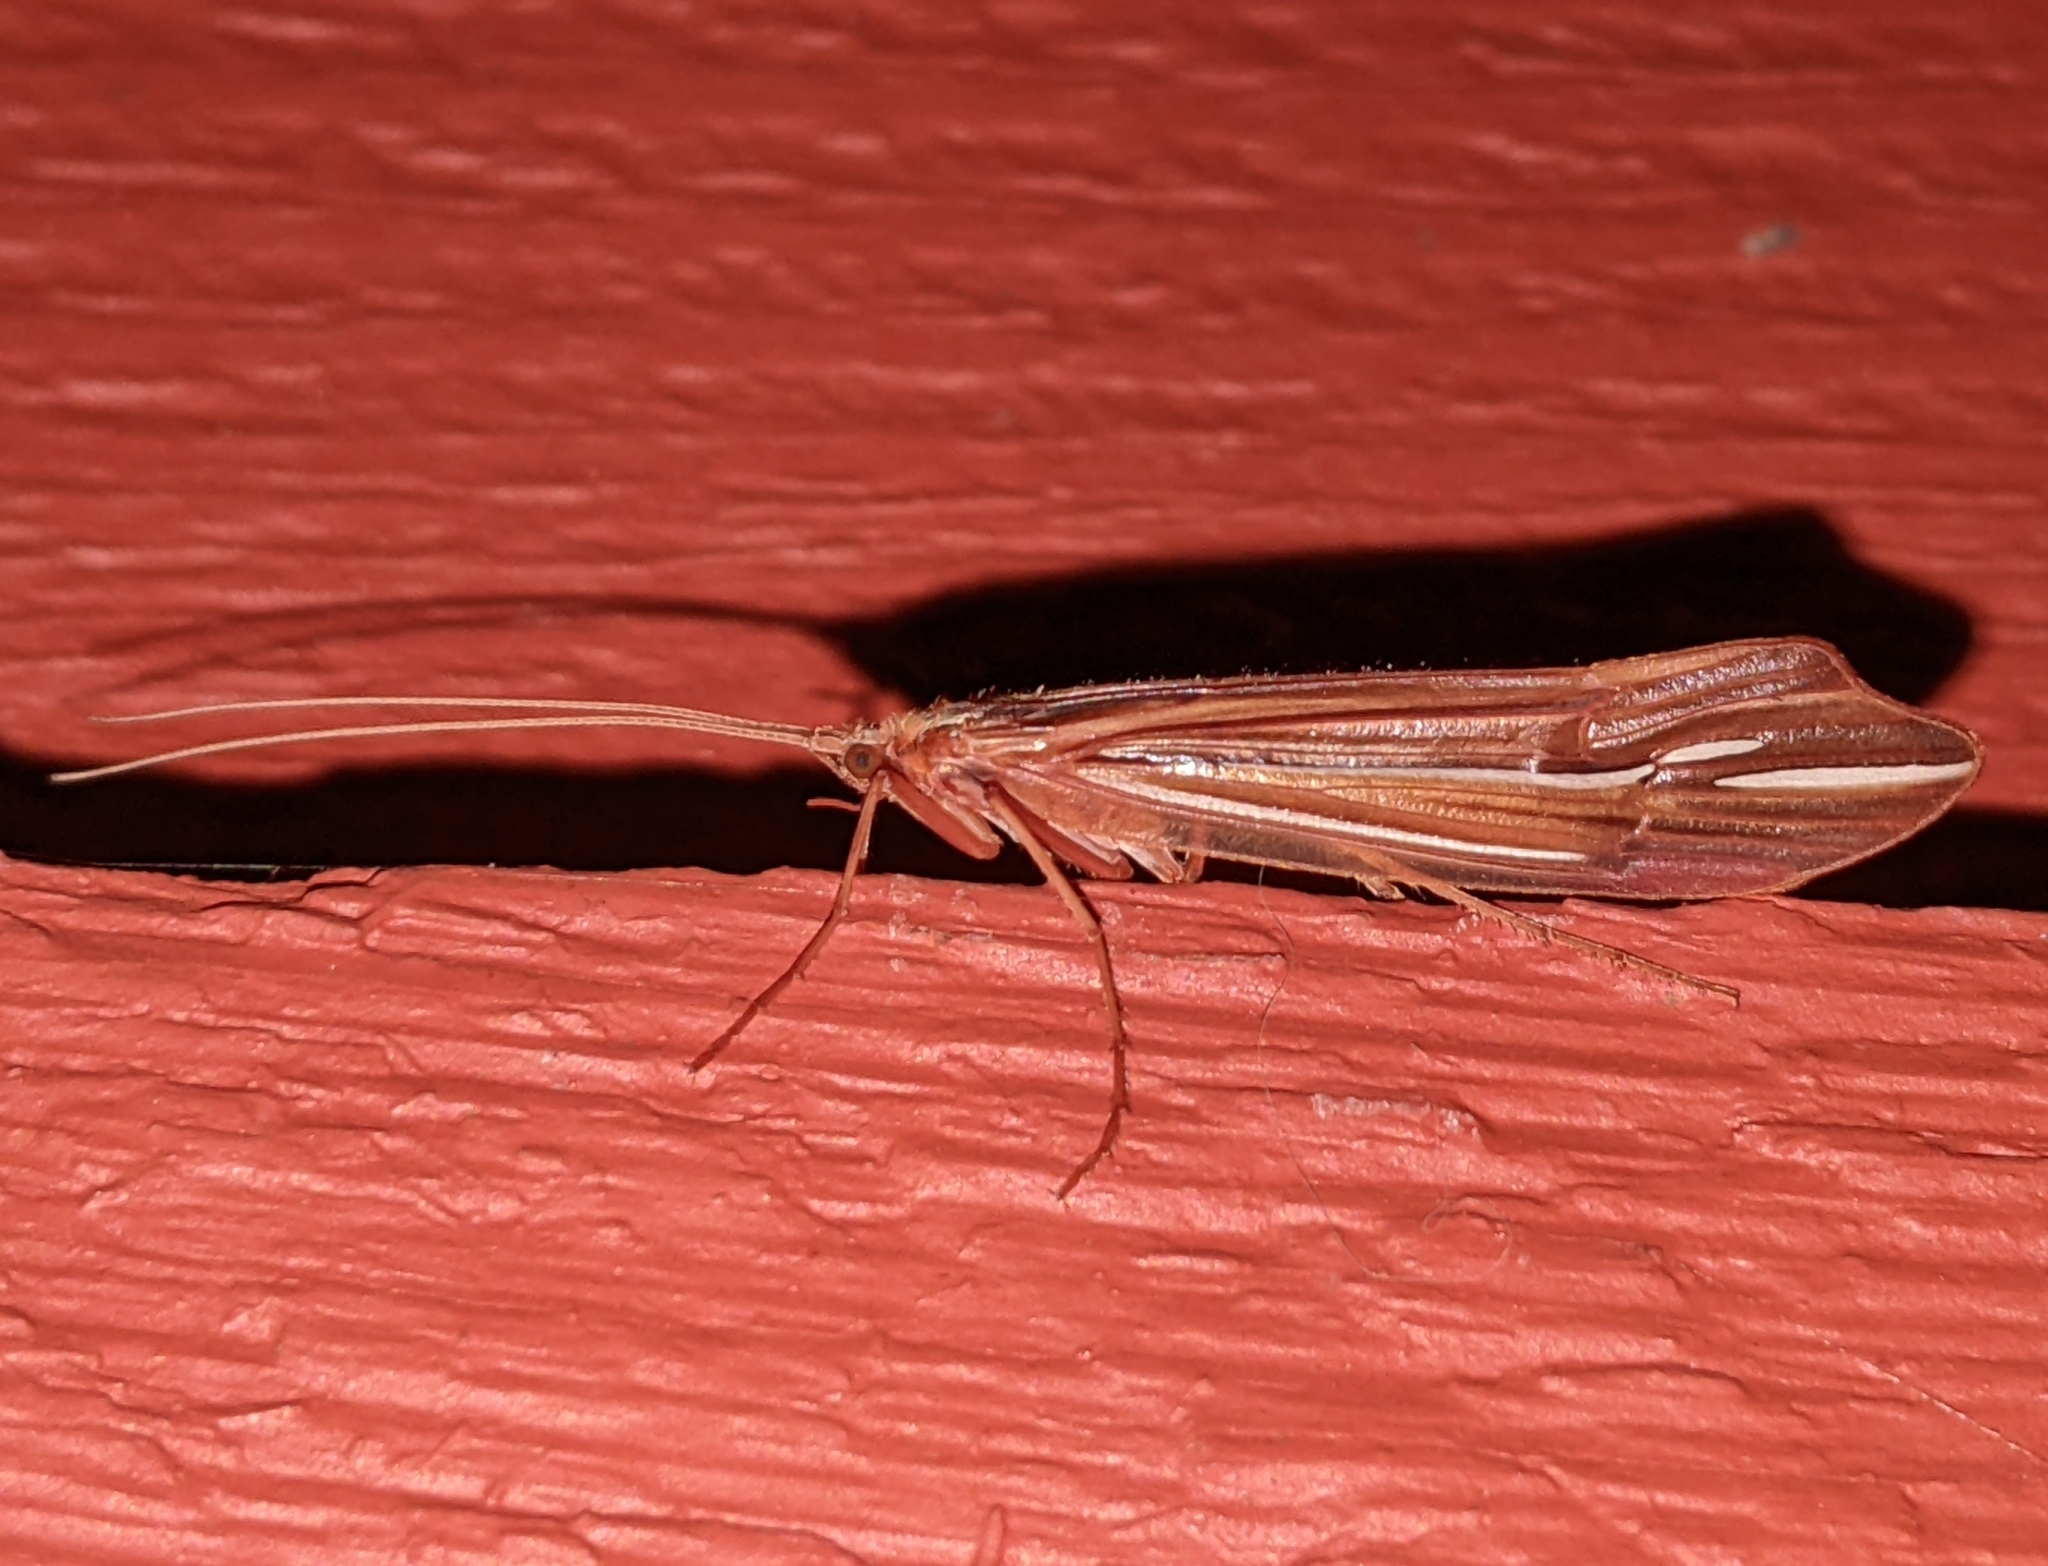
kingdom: Animalia
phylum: Arthropoda
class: Insecta
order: Trichoptera
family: Limnephilidae
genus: Psychoglypha
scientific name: Psychoglypha bella
